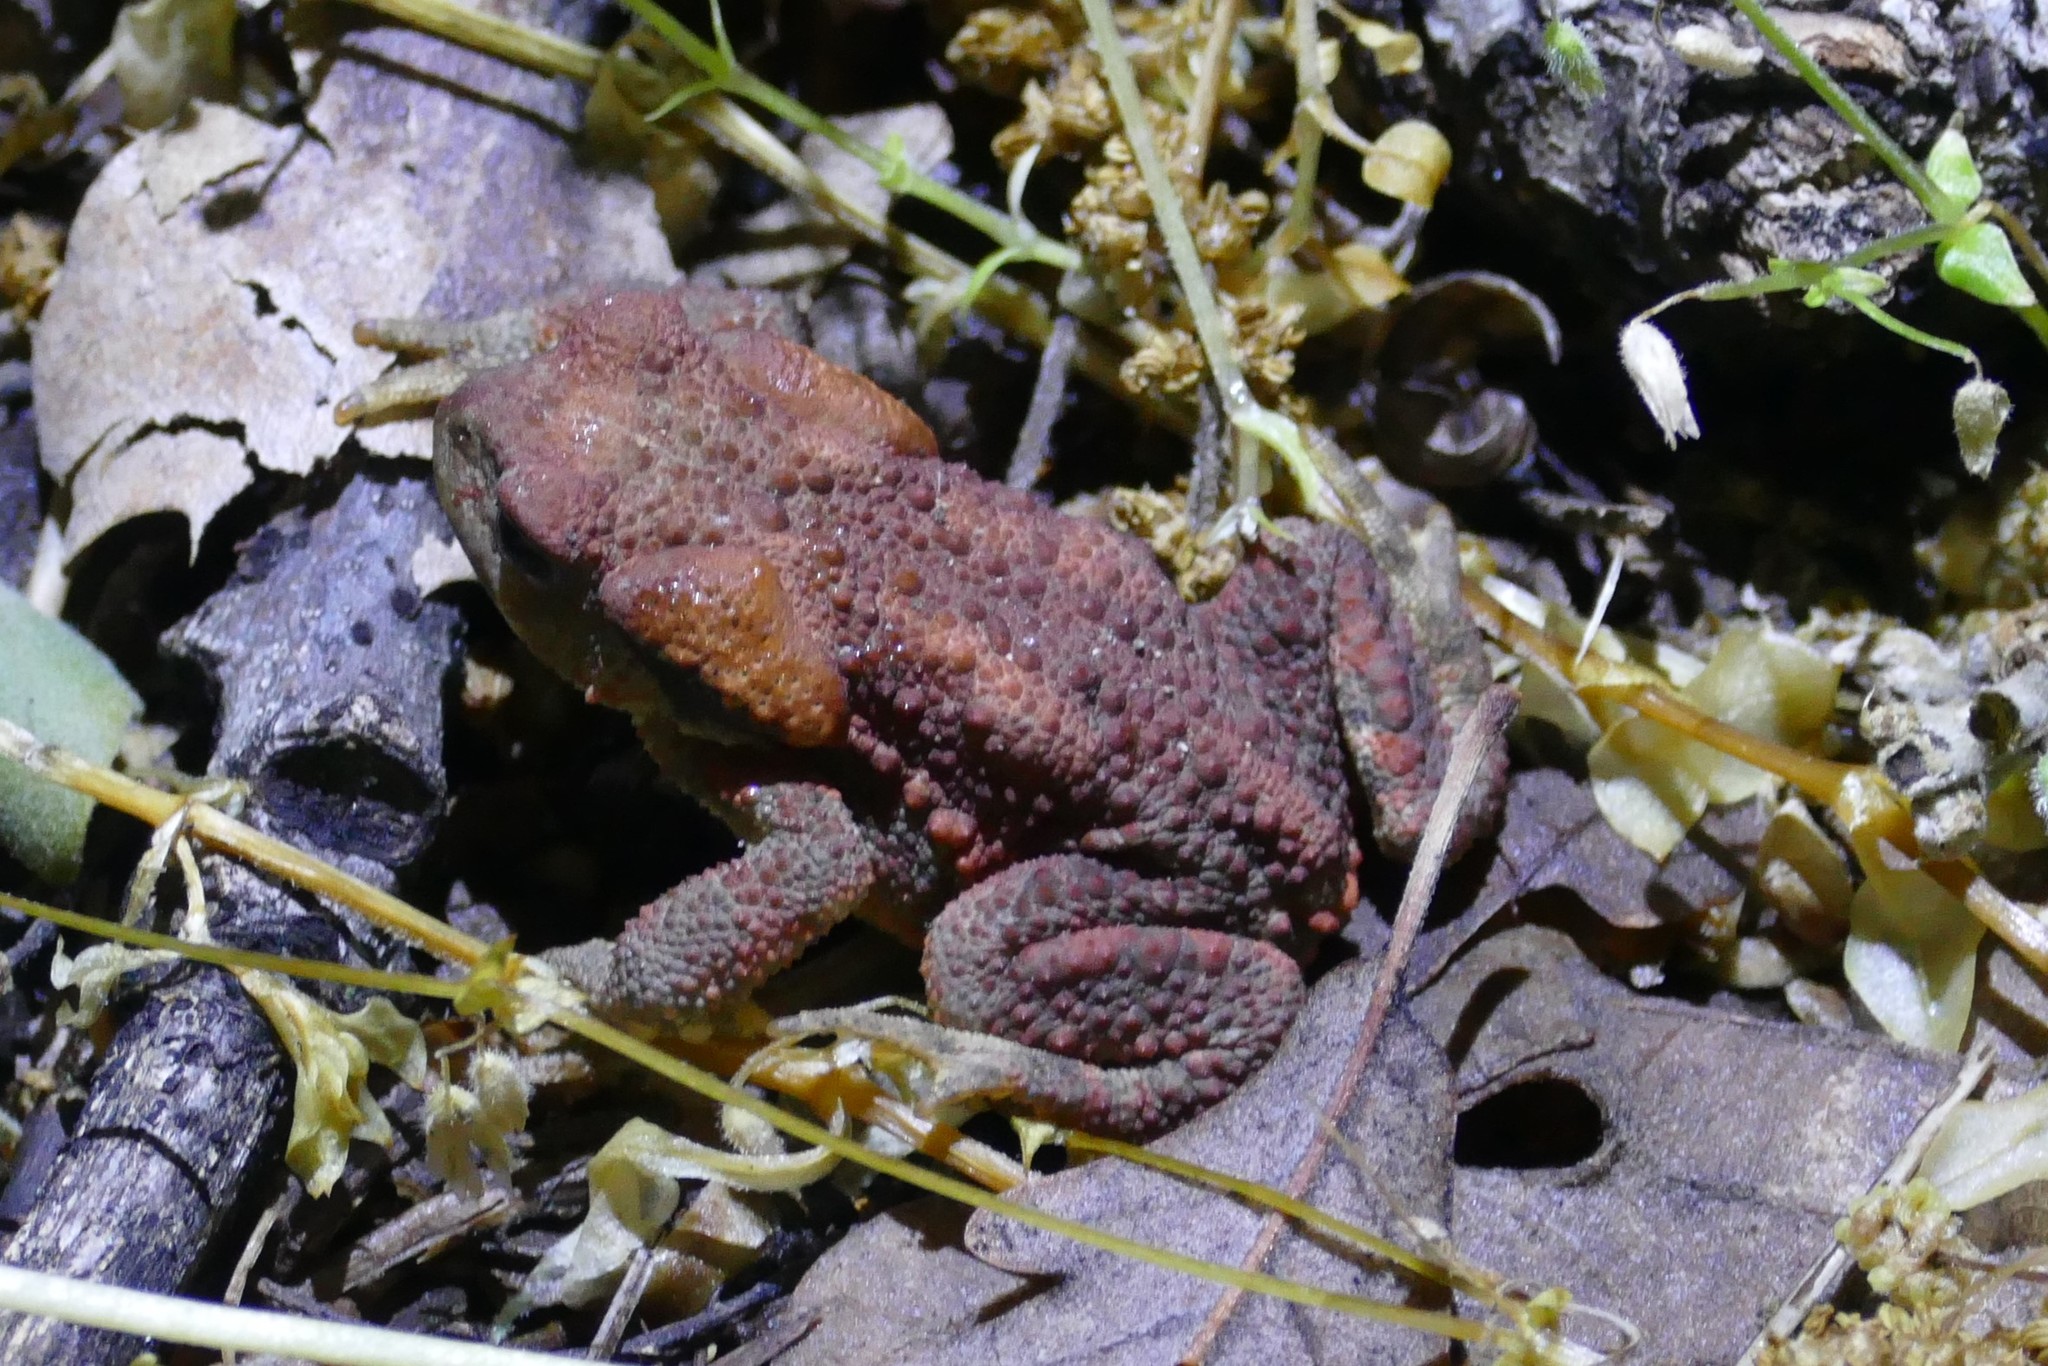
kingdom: Animalia
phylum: Chordata
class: Amphibia
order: Anura
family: Bufonidae
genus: Bufo
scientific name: Bufo spinosus
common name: Western common toad
